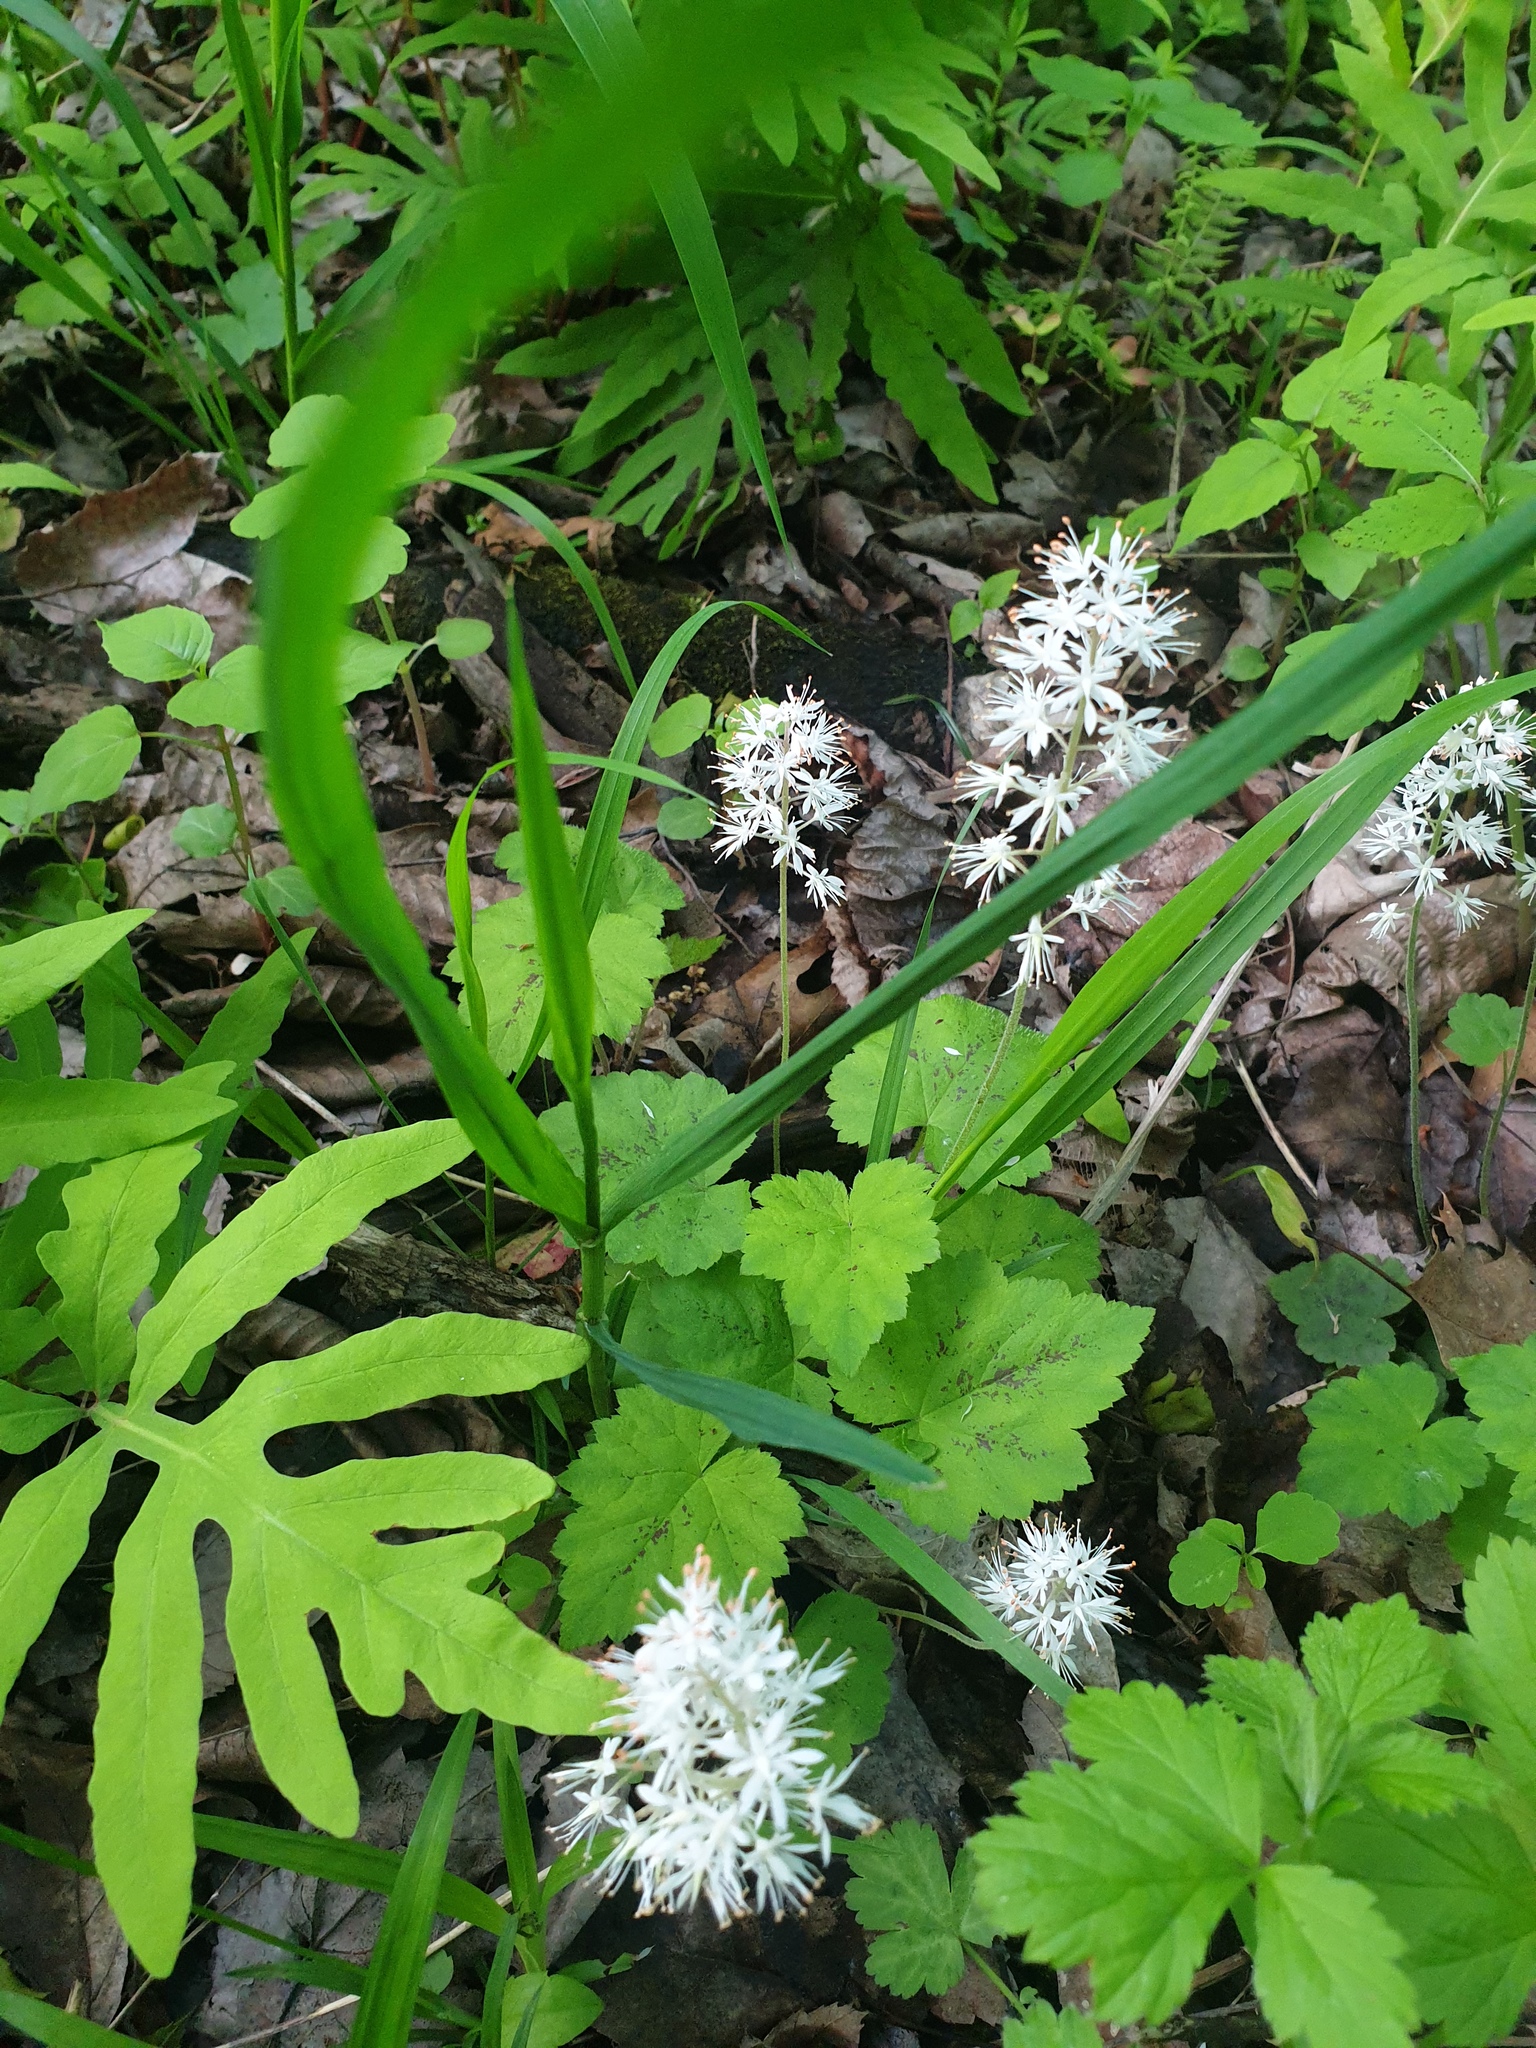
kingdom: Plantae
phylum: Tracheophyta
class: Magnoliopsida
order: Saxifragales
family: Saxifragaceae
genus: Tiarella
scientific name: Tiarella stolonifera
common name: Stoloniferous foamflower
